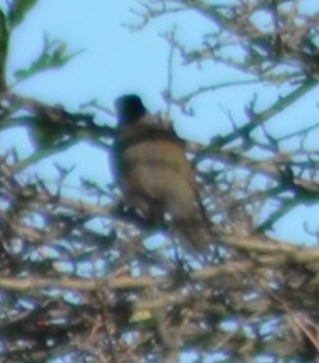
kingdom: Animalia
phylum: Chordata
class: Aves
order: Passeriformes
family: Sylviidae
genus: Sylvia
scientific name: Sylvia atricapilla
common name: Eurasian blackcap
